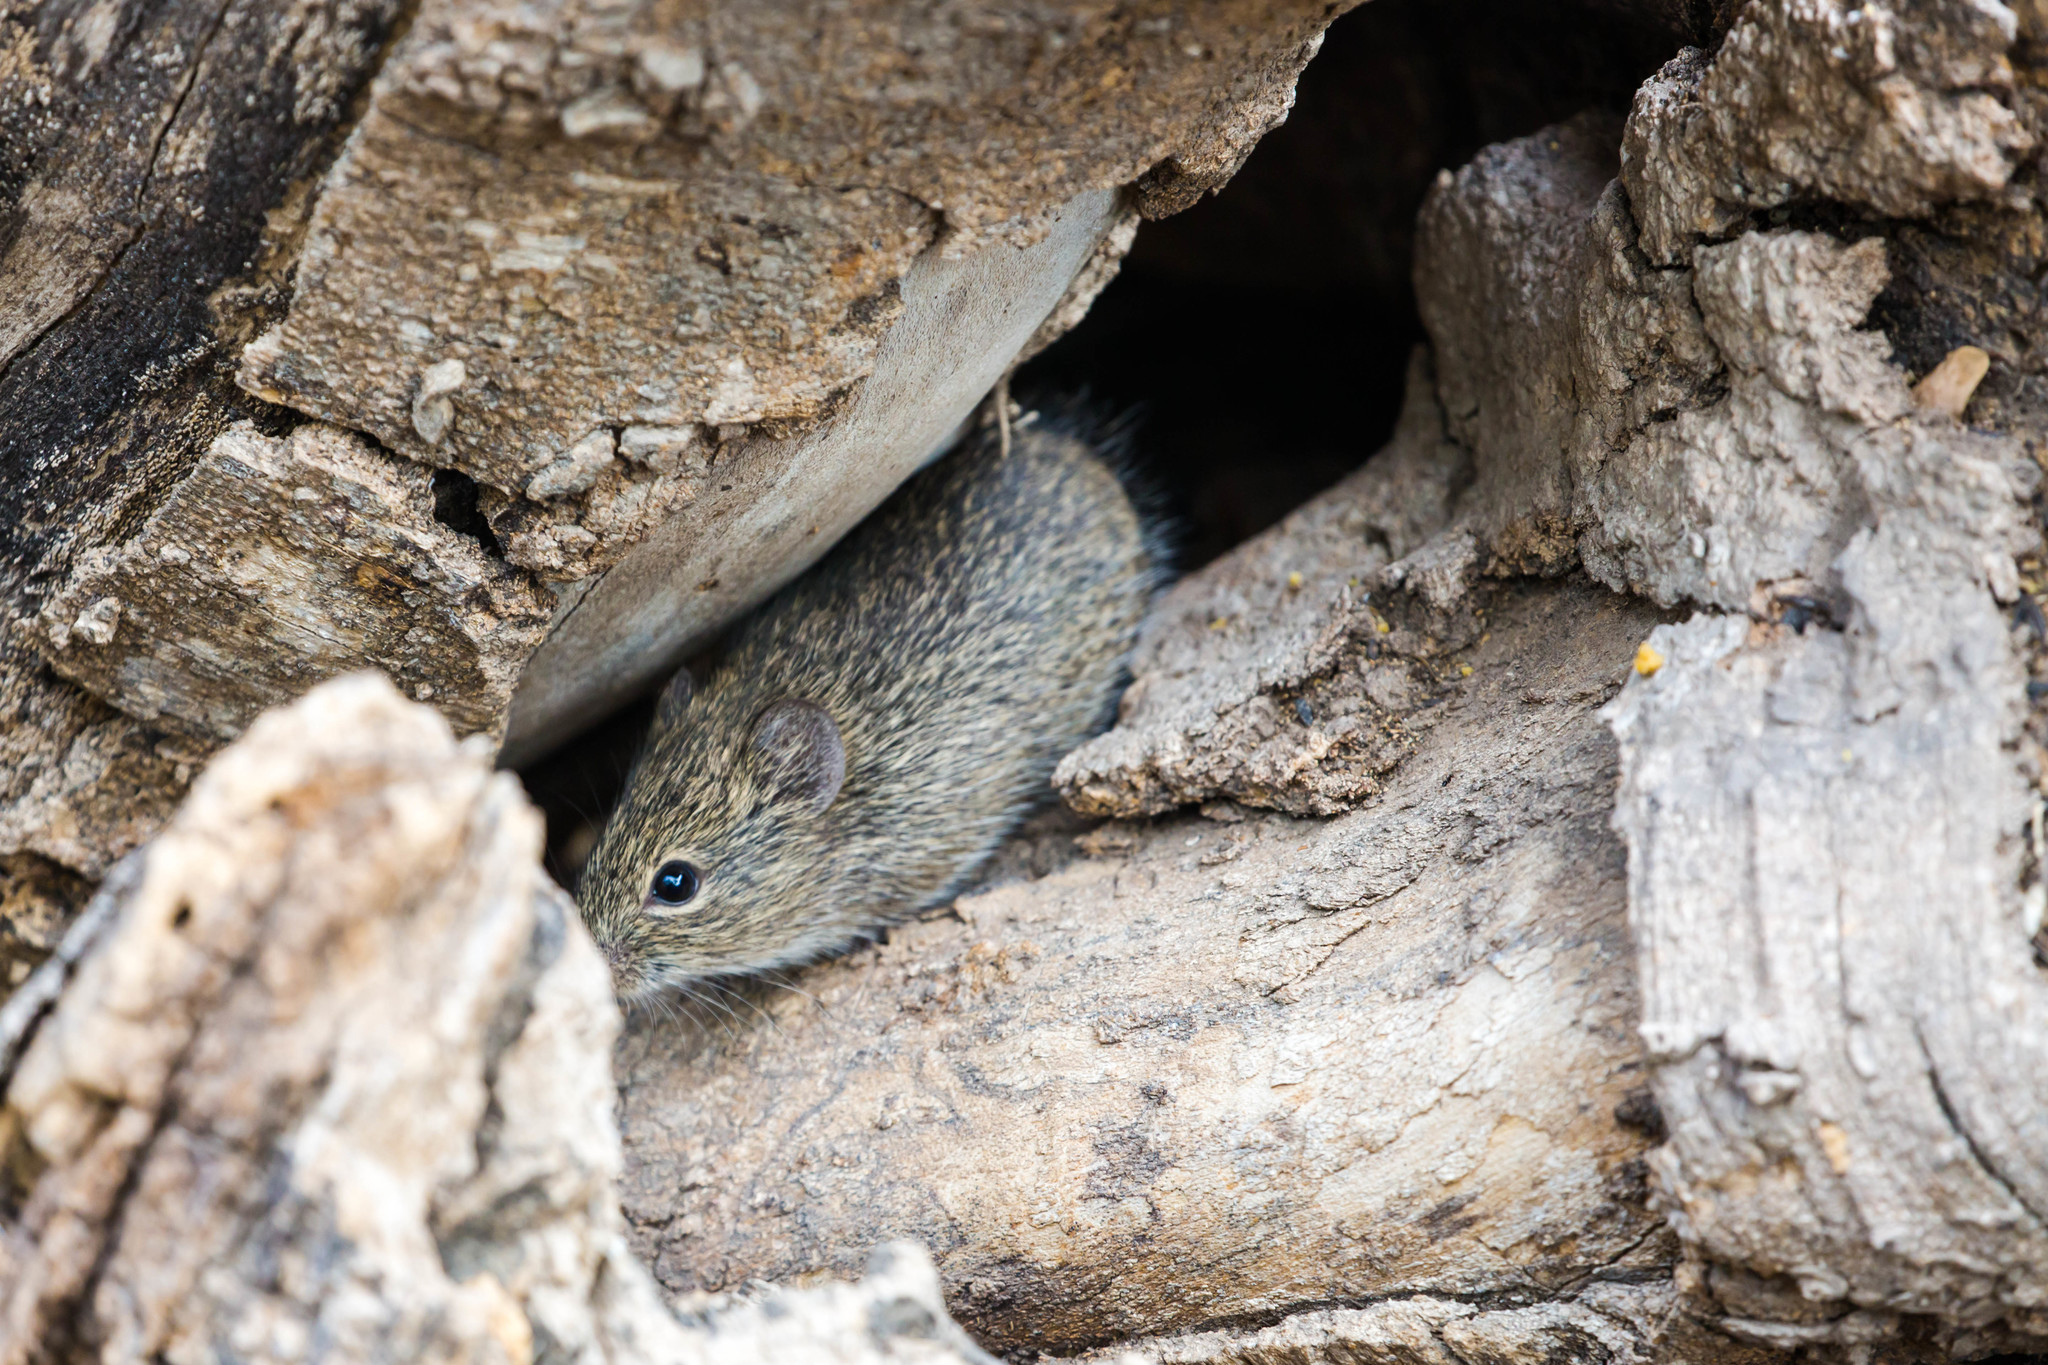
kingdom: Animalia
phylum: Chordata
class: Mammalia
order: Rodentia
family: Cricetidae
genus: Sigmodon
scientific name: Sigmodon hispidus
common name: Hispid cotton rat
